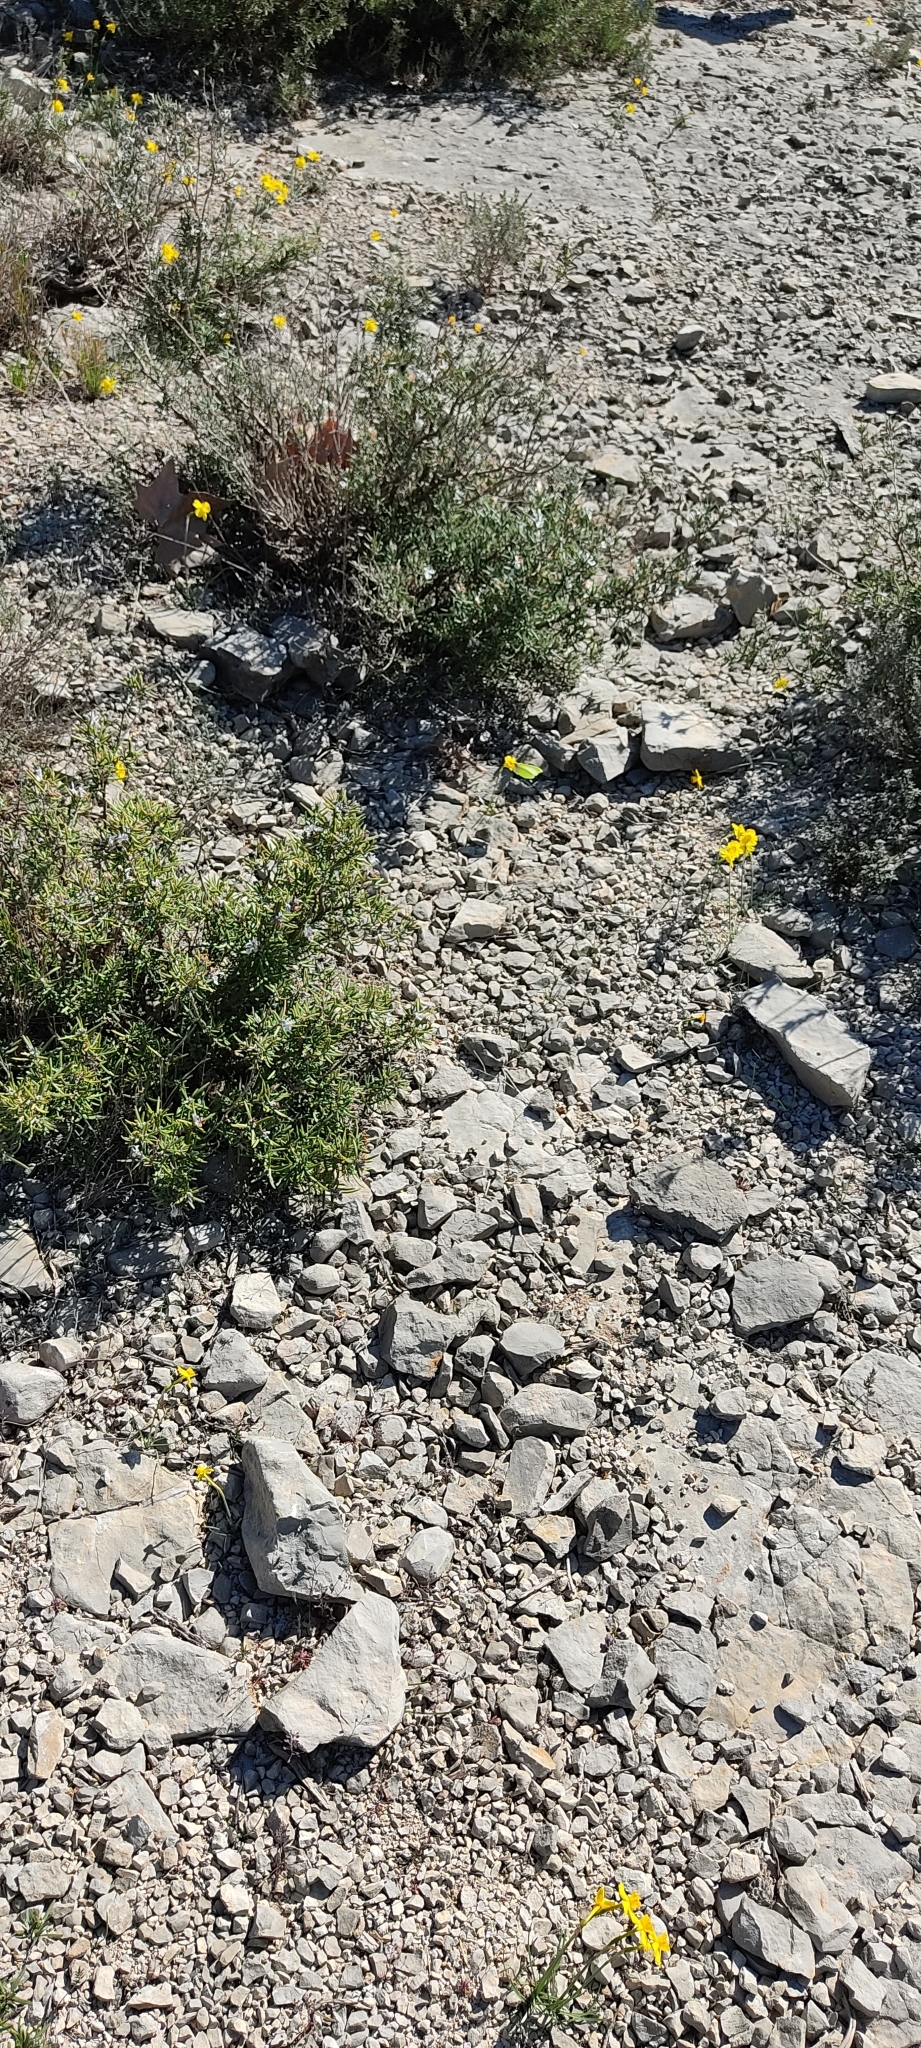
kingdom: Plantae
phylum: Tracheophyta
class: Liliopsida
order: Asparagales
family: Amaryllidaceae
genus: Narcissus
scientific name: Narcissus assoanus
